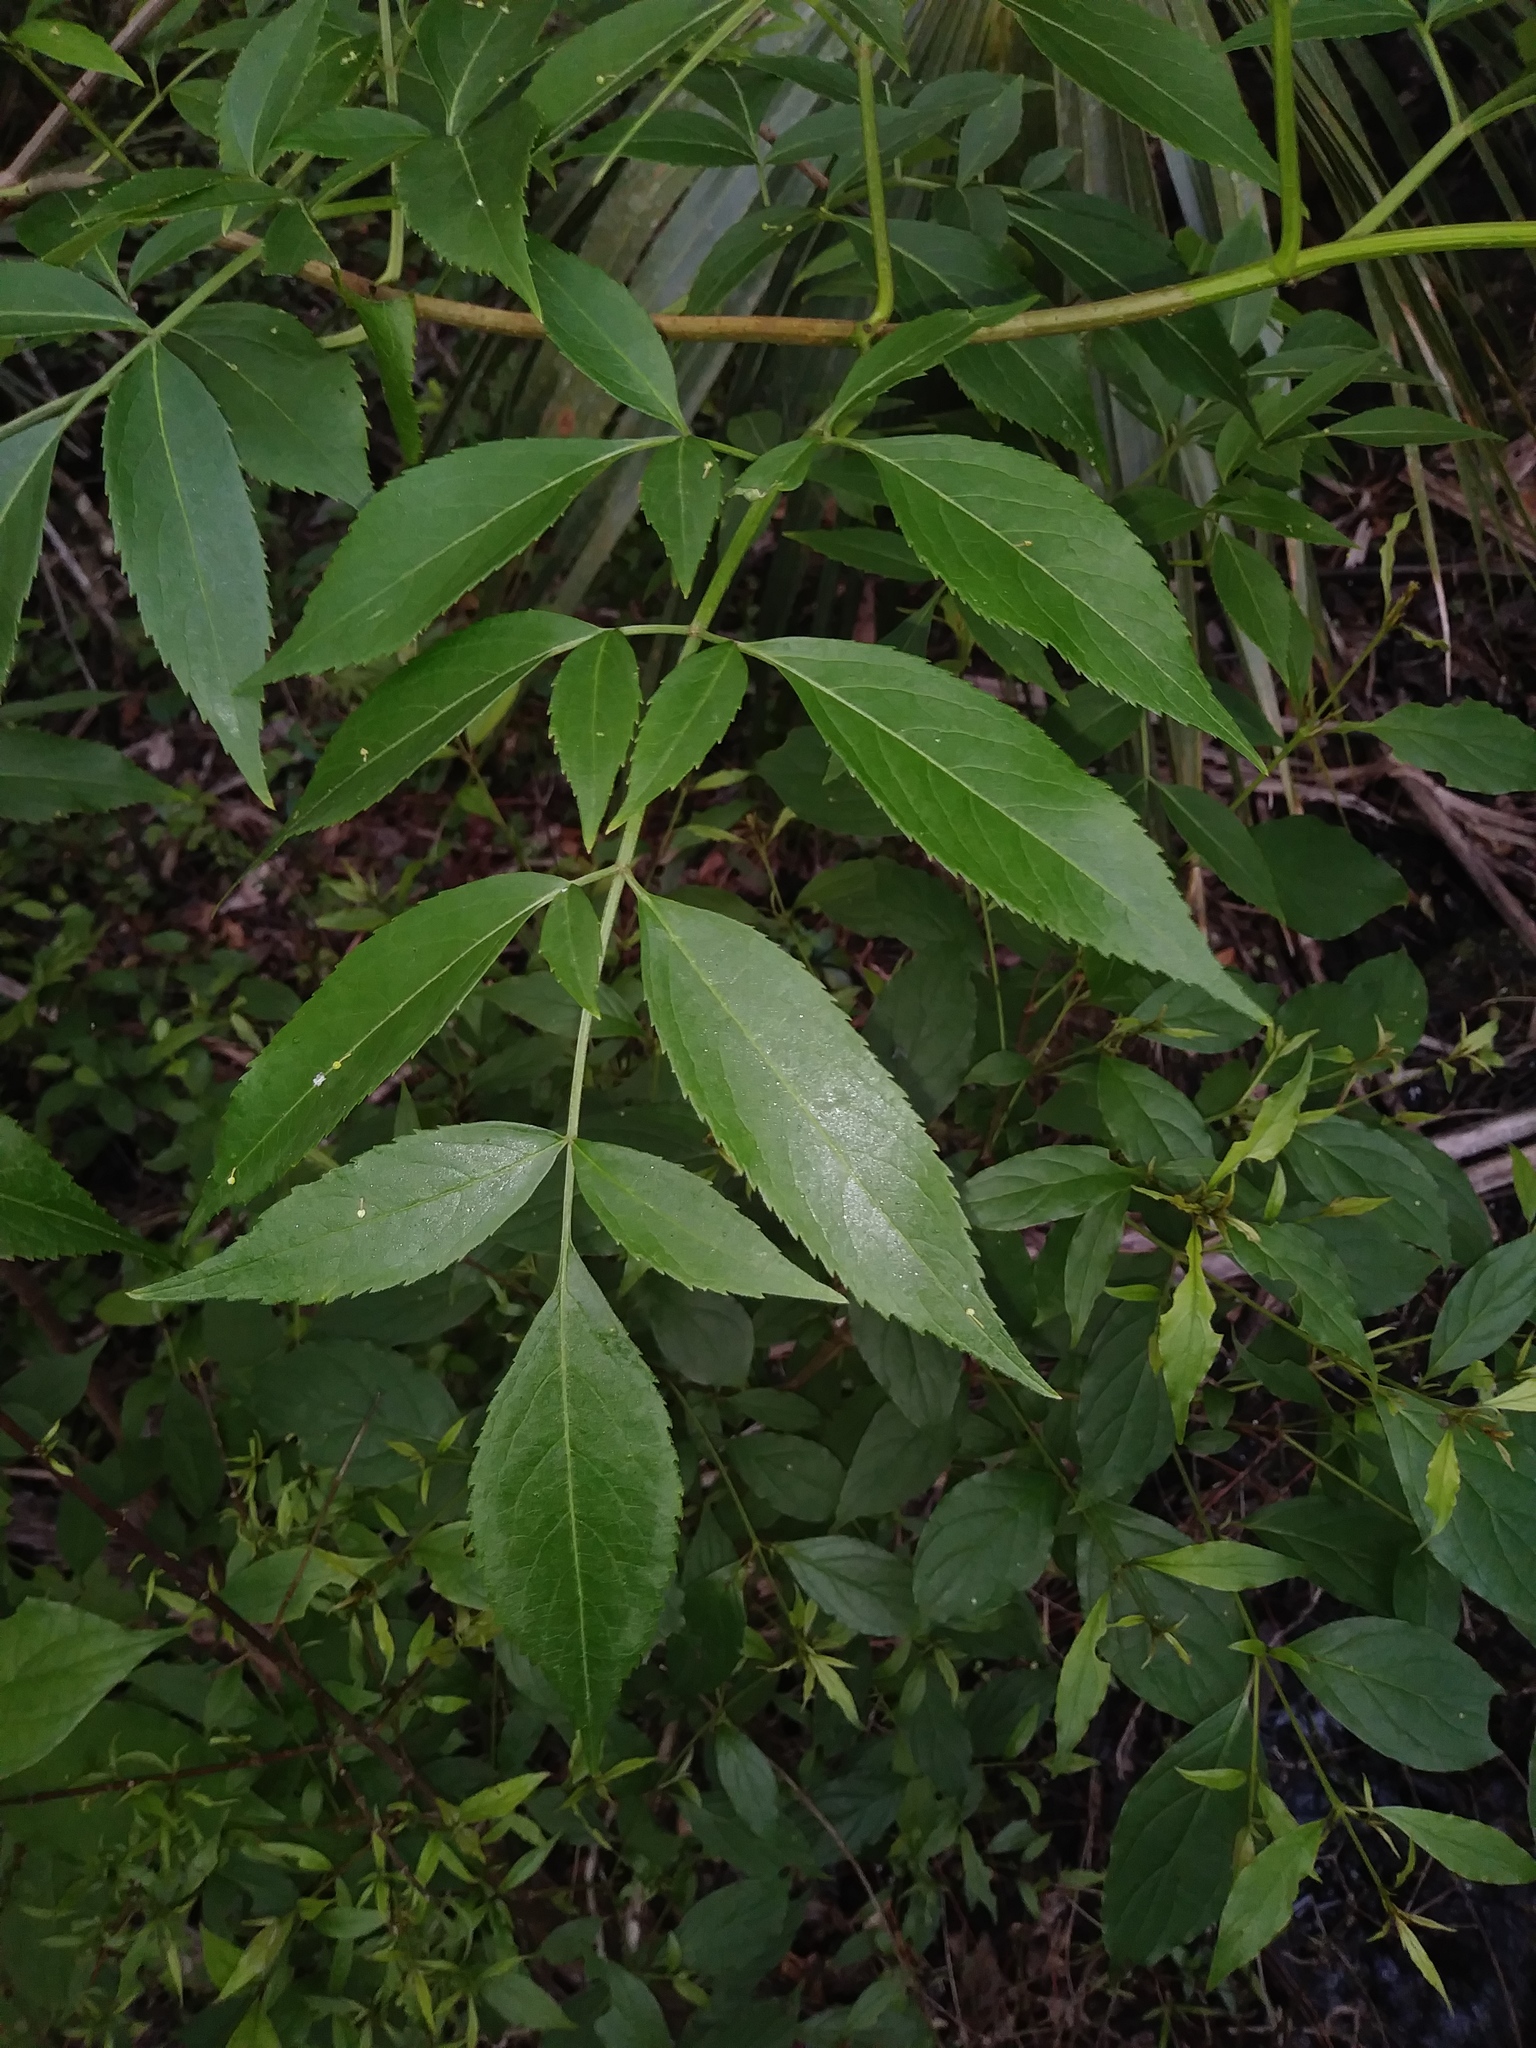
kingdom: Plantae
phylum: Tracheophyta
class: Magnoliopsida
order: Dipsacales
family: Viburnaceae
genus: Sambucus
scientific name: Sambucus canadensis
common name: American elder
